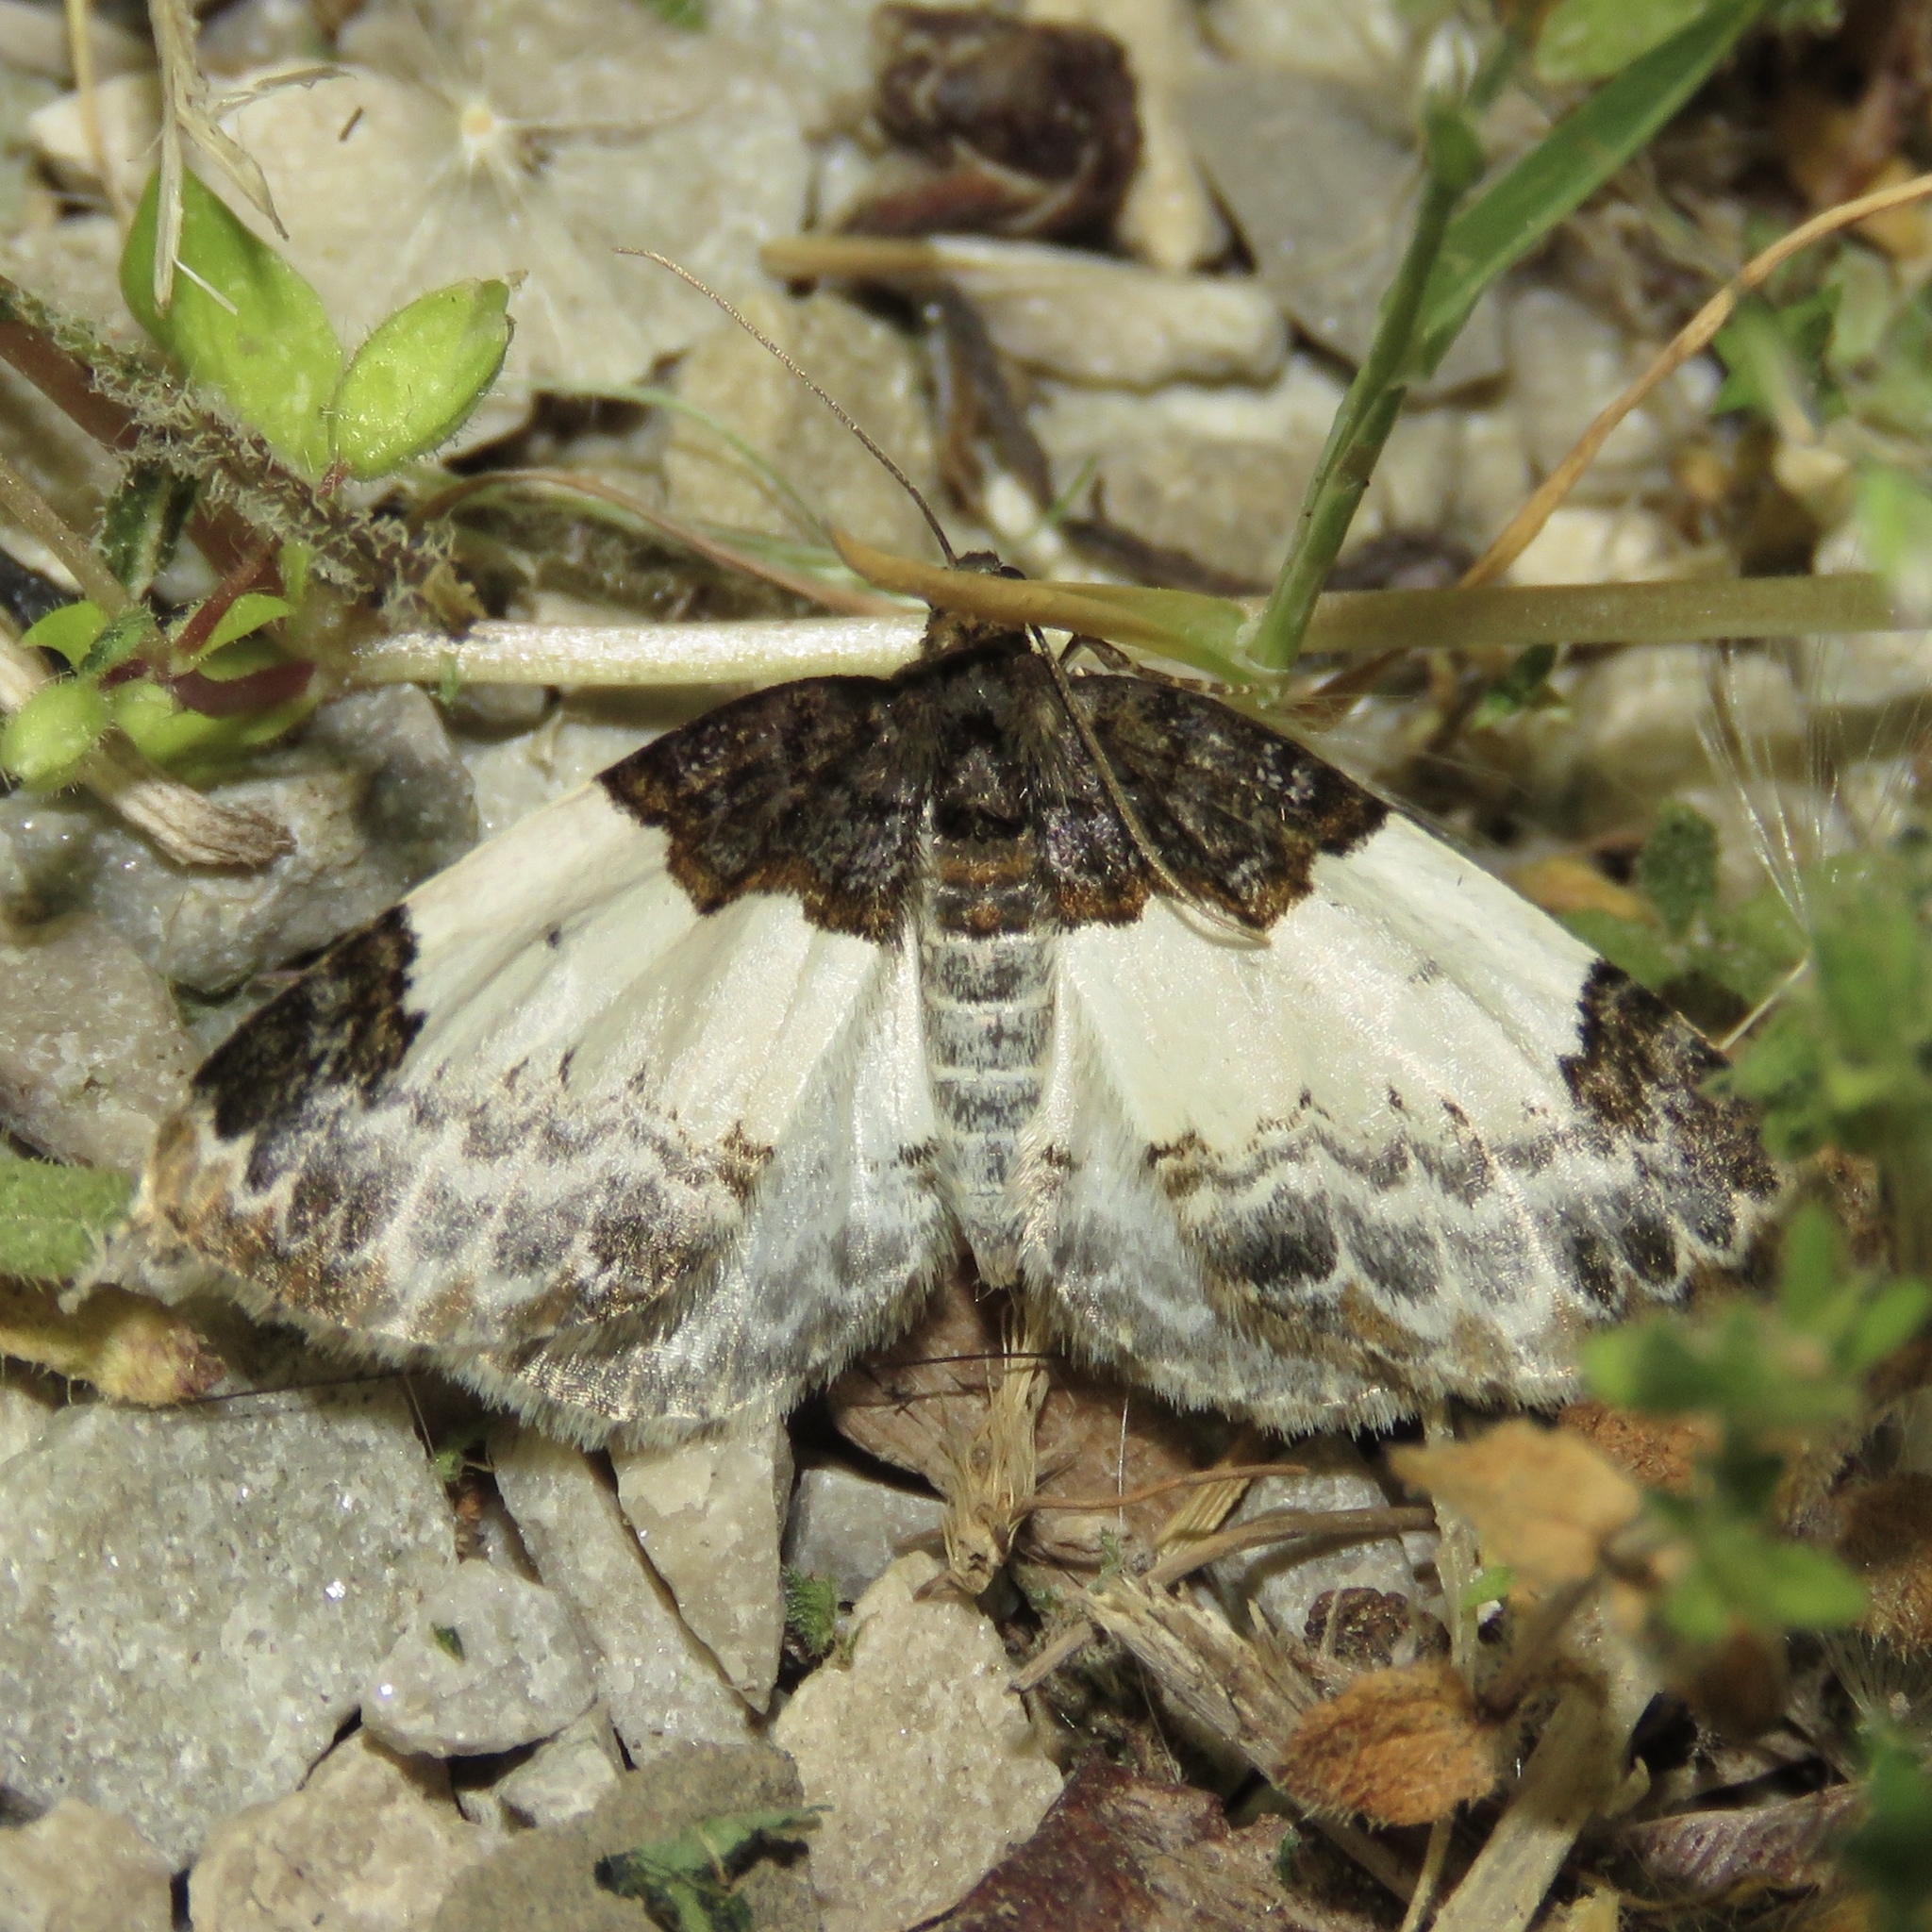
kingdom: Animalia
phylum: Arthropoda
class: Insecta
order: Lepidoptera
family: Geometridae
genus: Mesoleuca
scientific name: Mesoleuca ruficillata
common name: White-ribboned carpet moth
